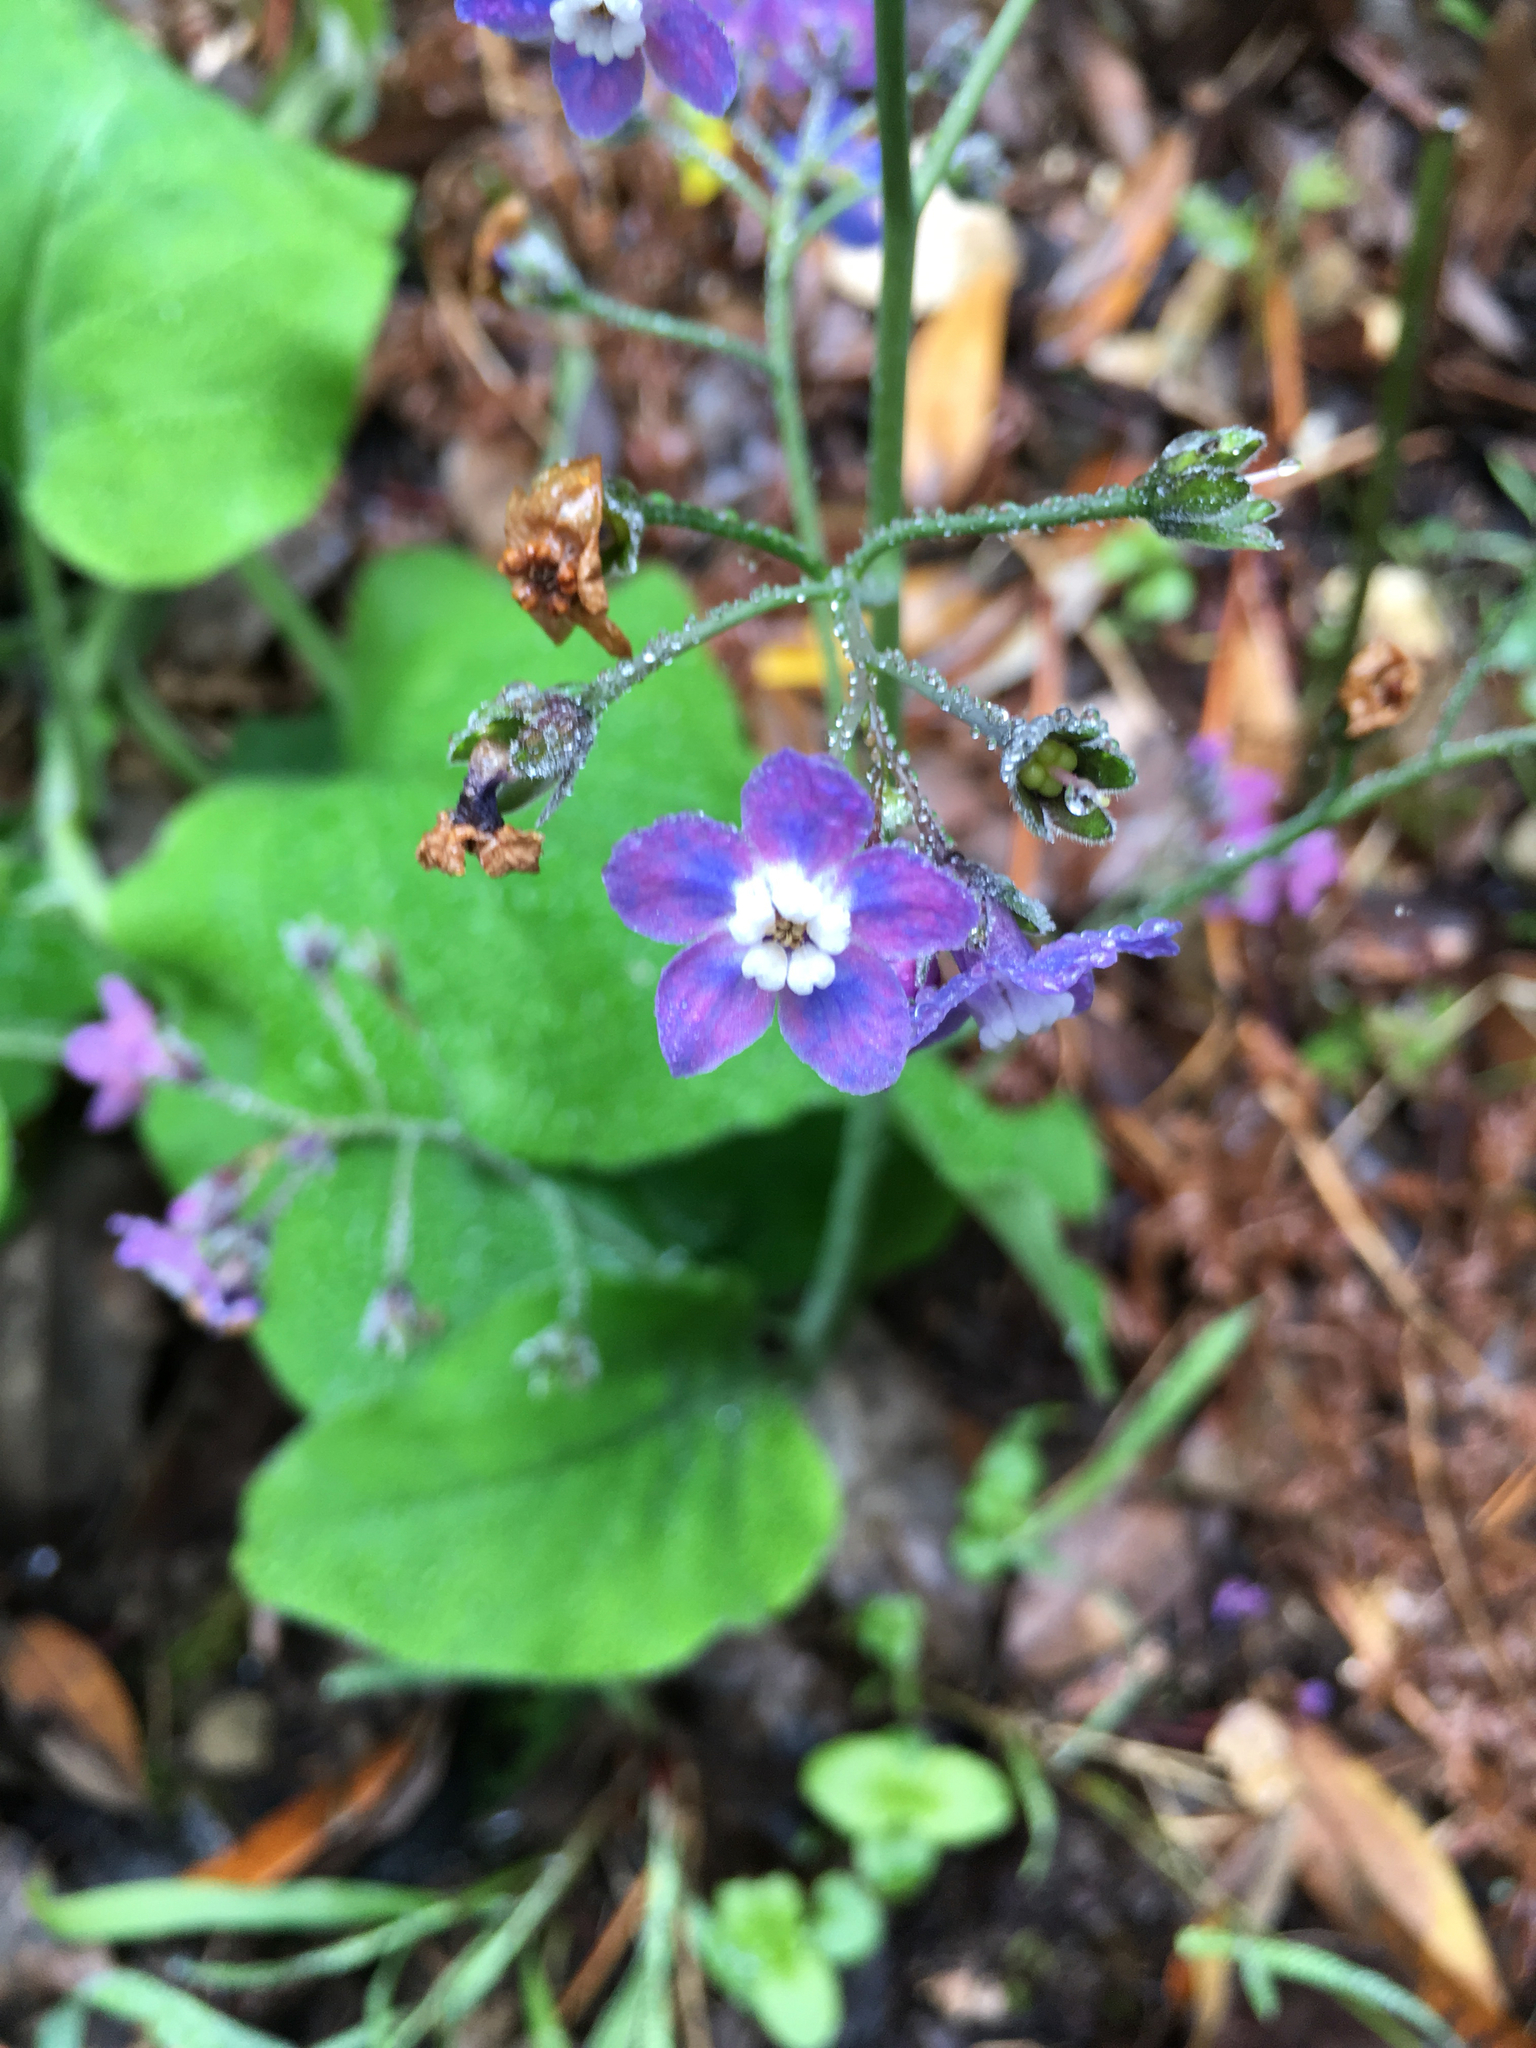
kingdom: Plantae
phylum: Tracheophyta
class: Magnoliopsida
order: Boraginales
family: Boraginaceae
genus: Adelinia
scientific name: Adelinia grande
